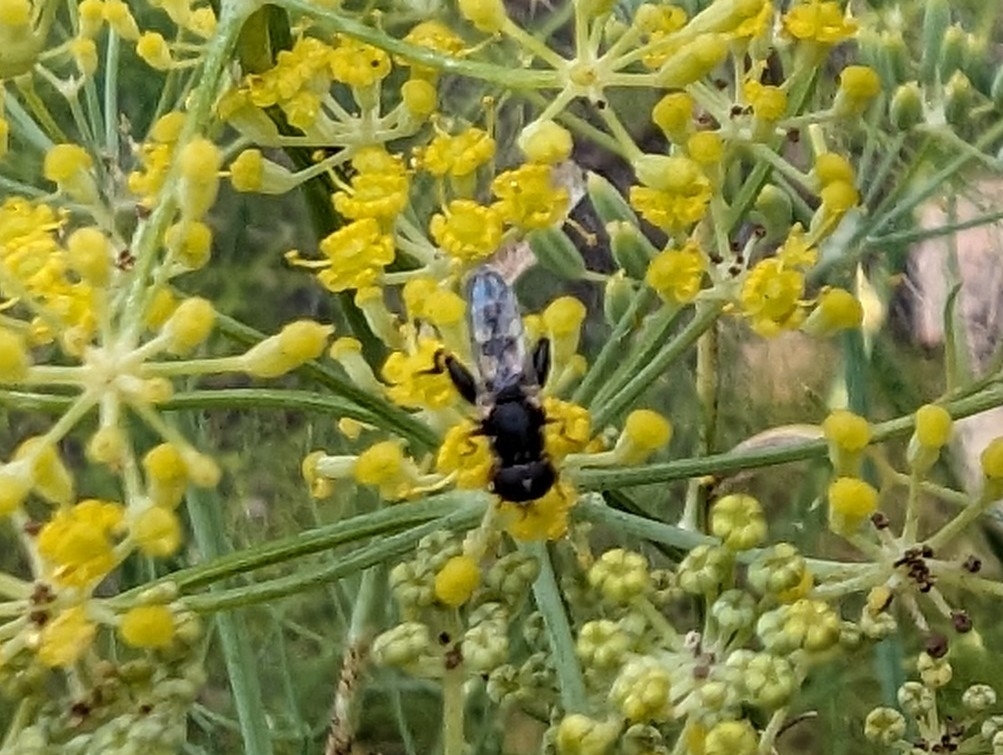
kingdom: Animalia
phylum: Arthropoda
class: Insecta
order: Diptera
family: Syrphidae
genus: Syritta
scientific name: Syritta pipiens
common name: Hover fly
